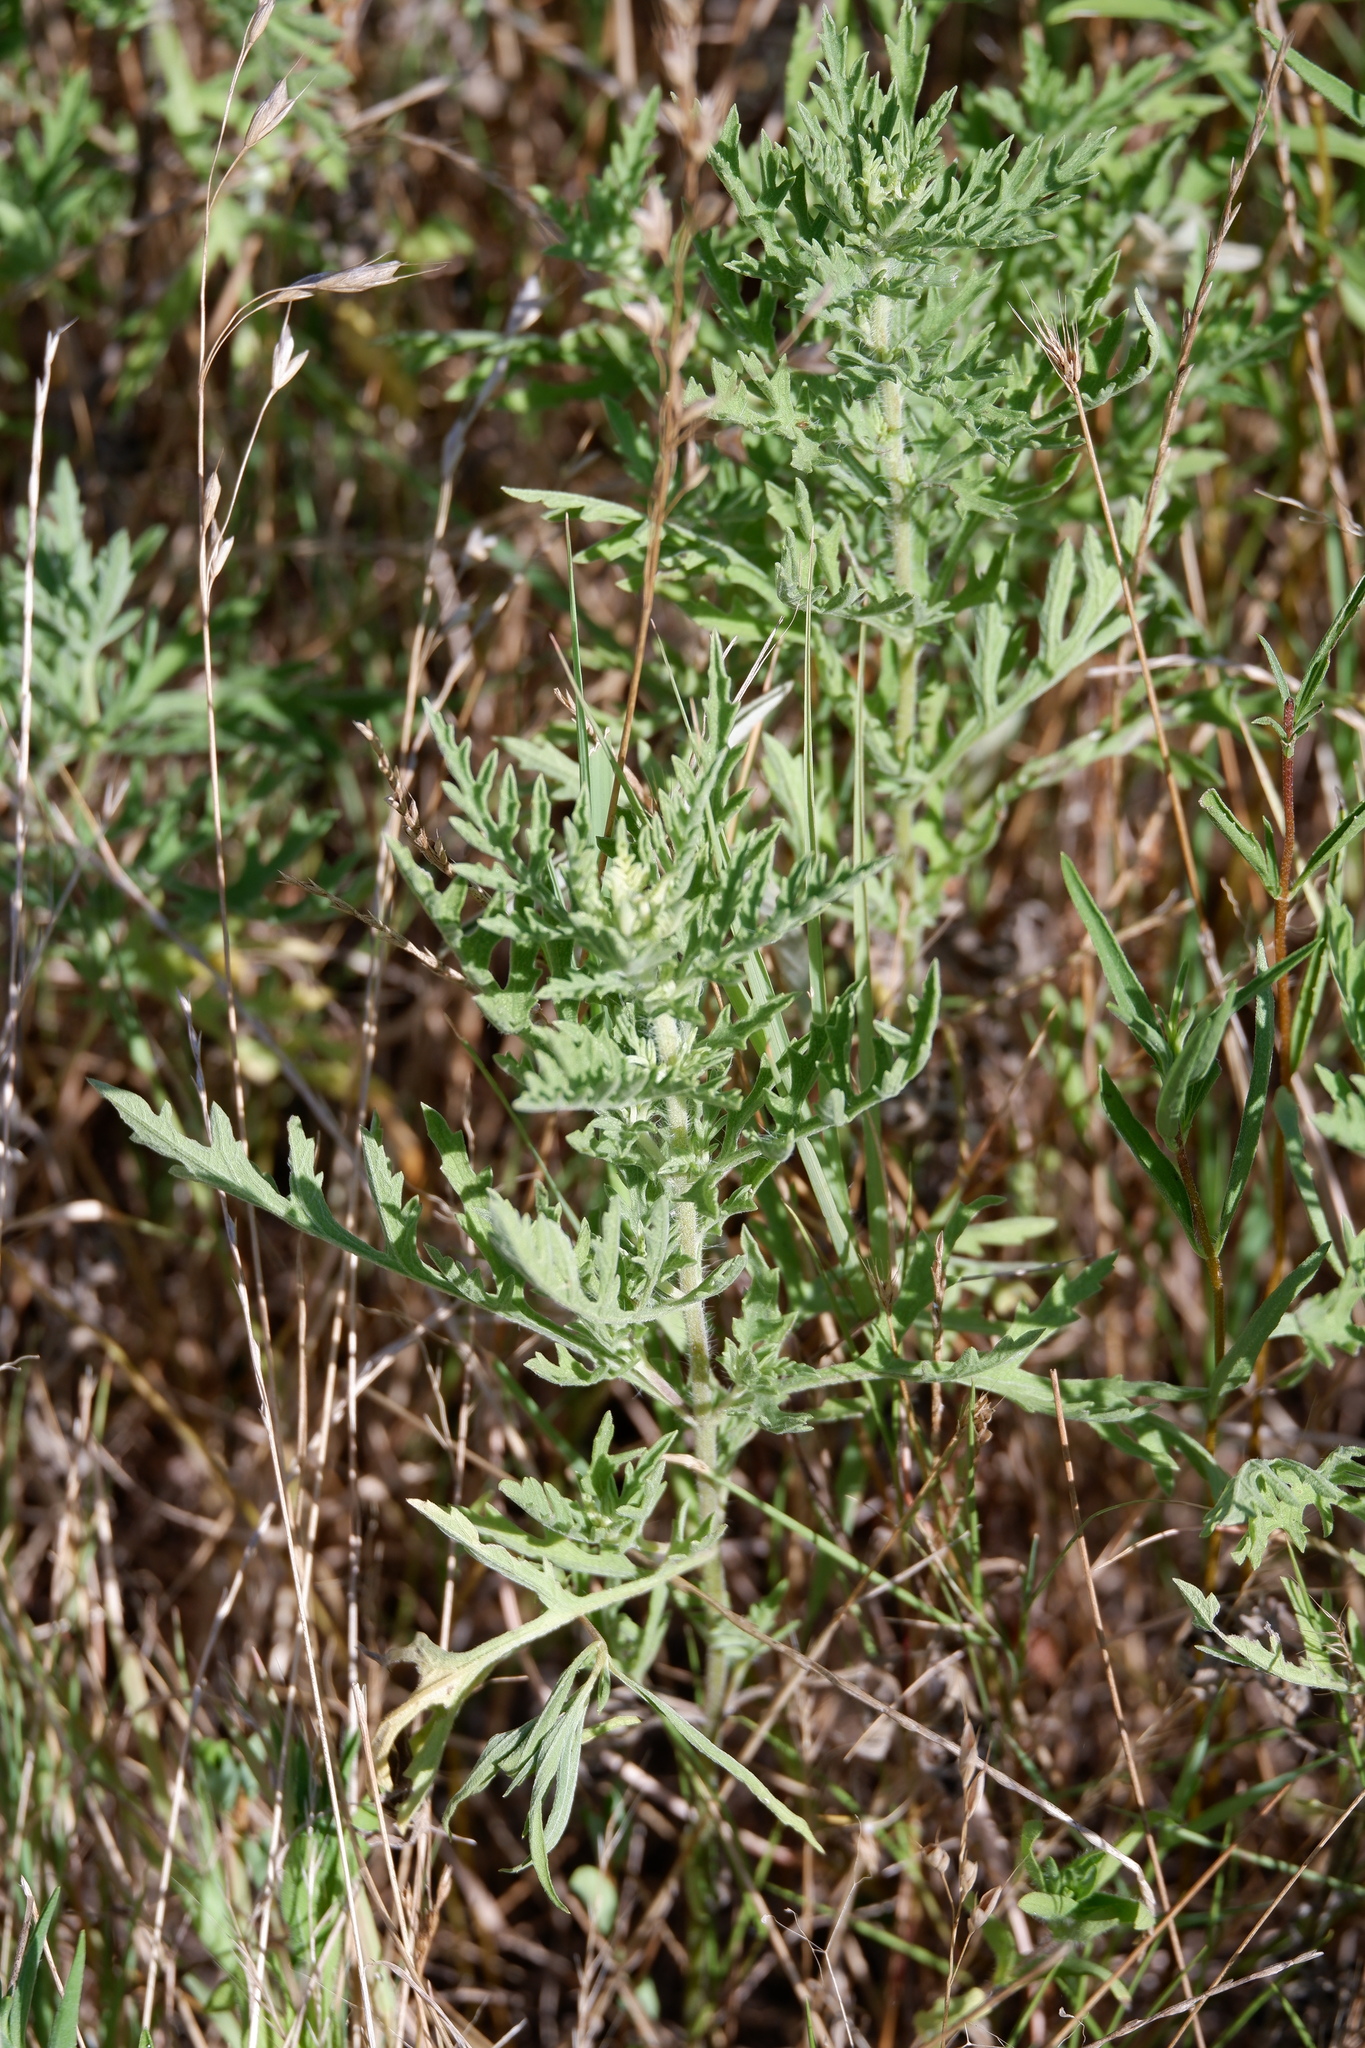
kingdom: Plantae
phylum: Tracheophyta
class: Magnoliopsida
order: Asterales
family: Asteraceae
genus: Ambrosia
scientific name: Ambrosia psilostachya
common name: Perennial ragweed
